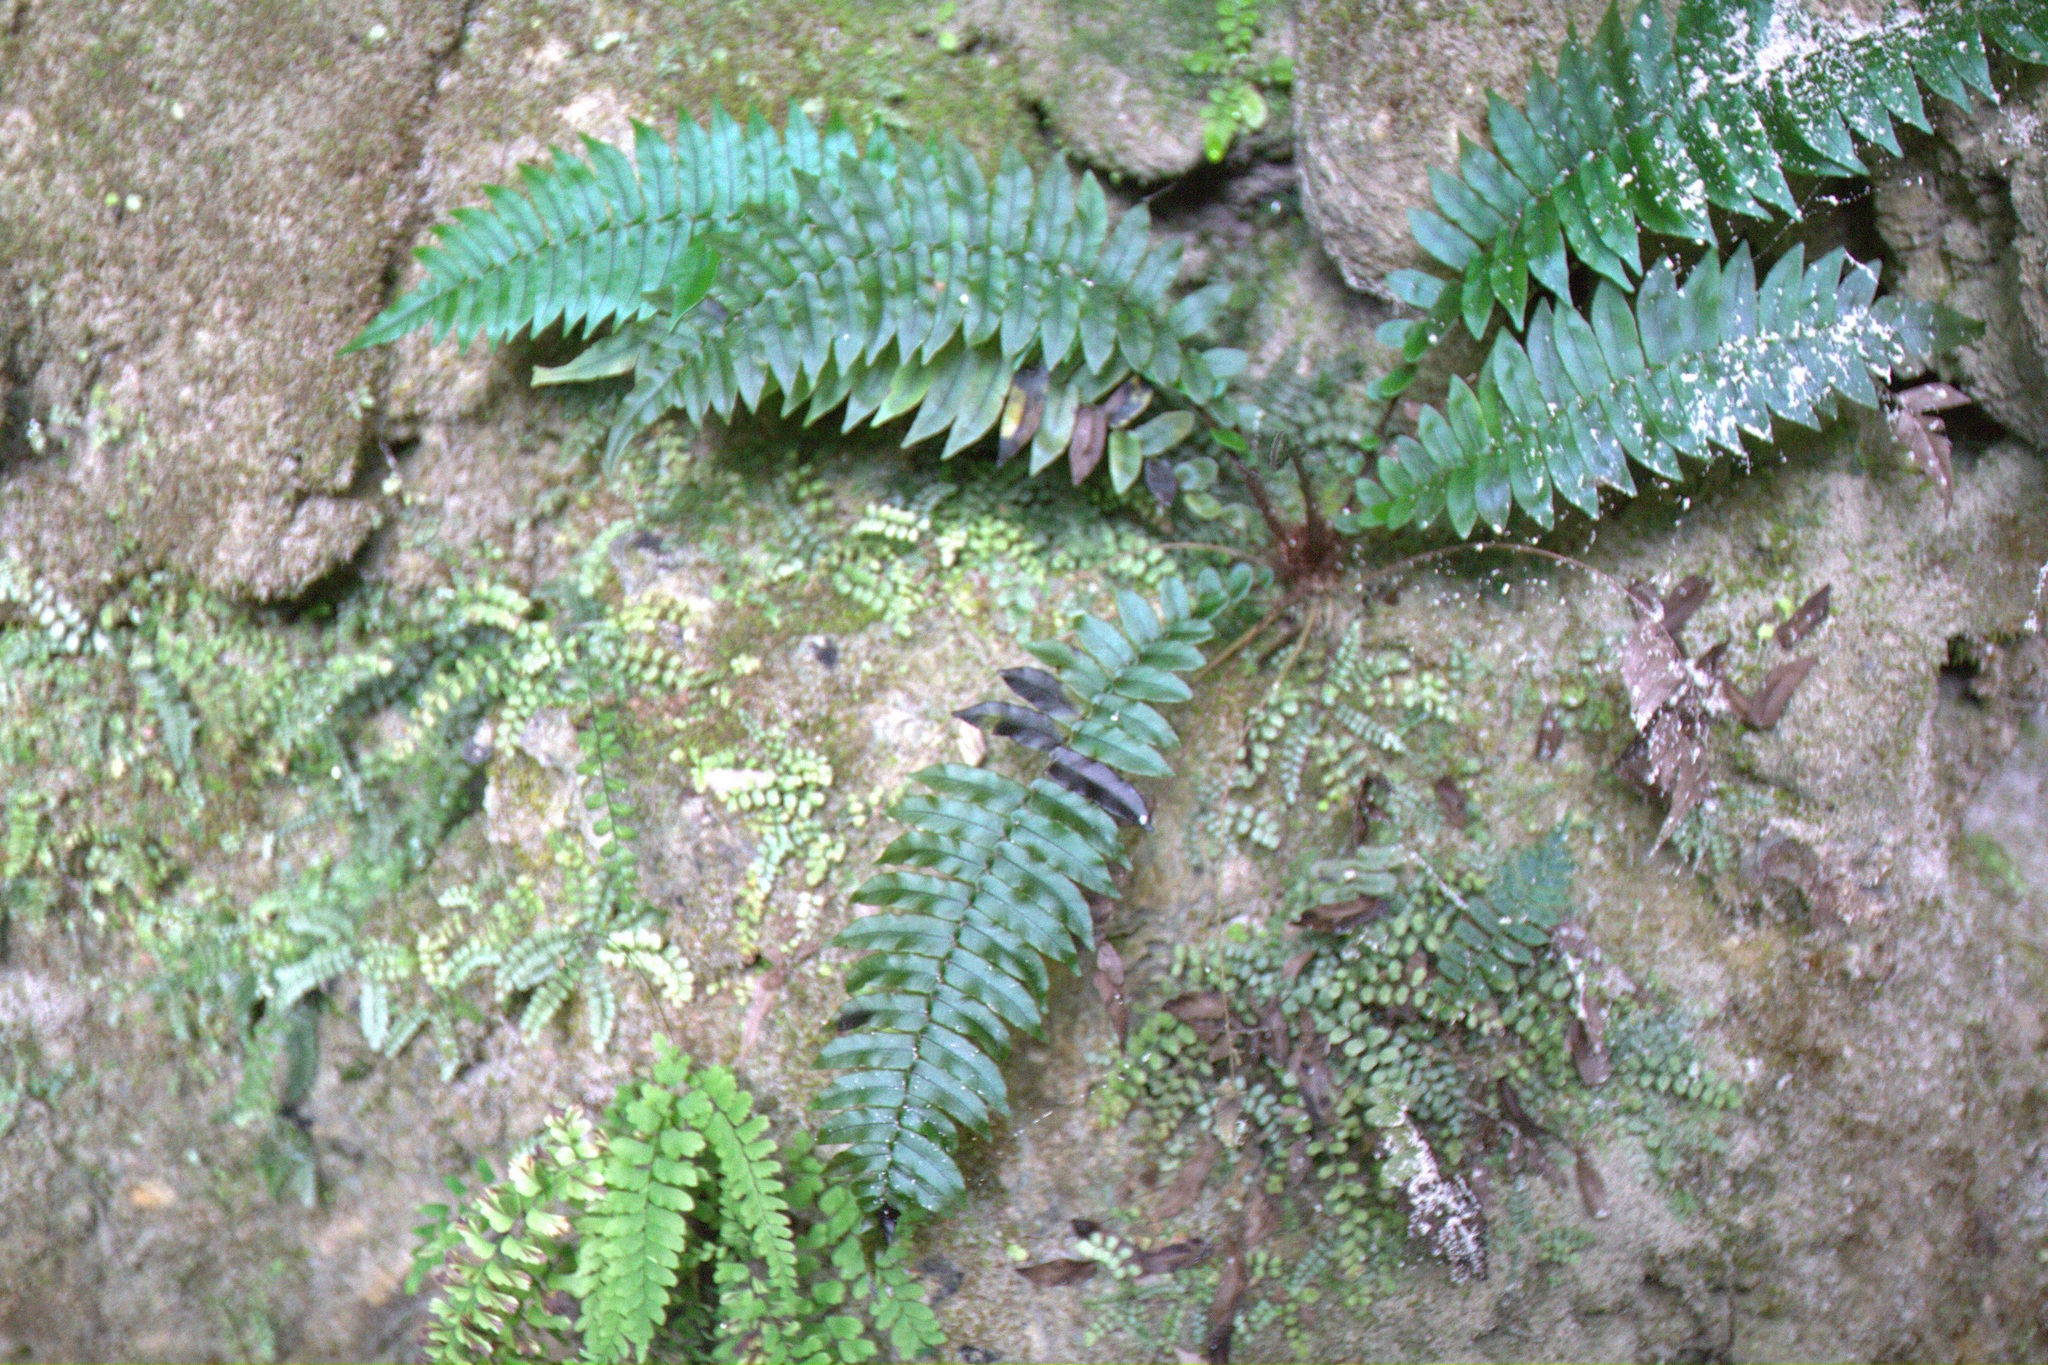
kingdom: Plantae
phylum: Tracheophyta
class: Polypodiopsida
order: Polypodiales
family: Lomariopsidaceae
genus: Cyclopeltis
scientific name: Cyclopeltis semicordata
